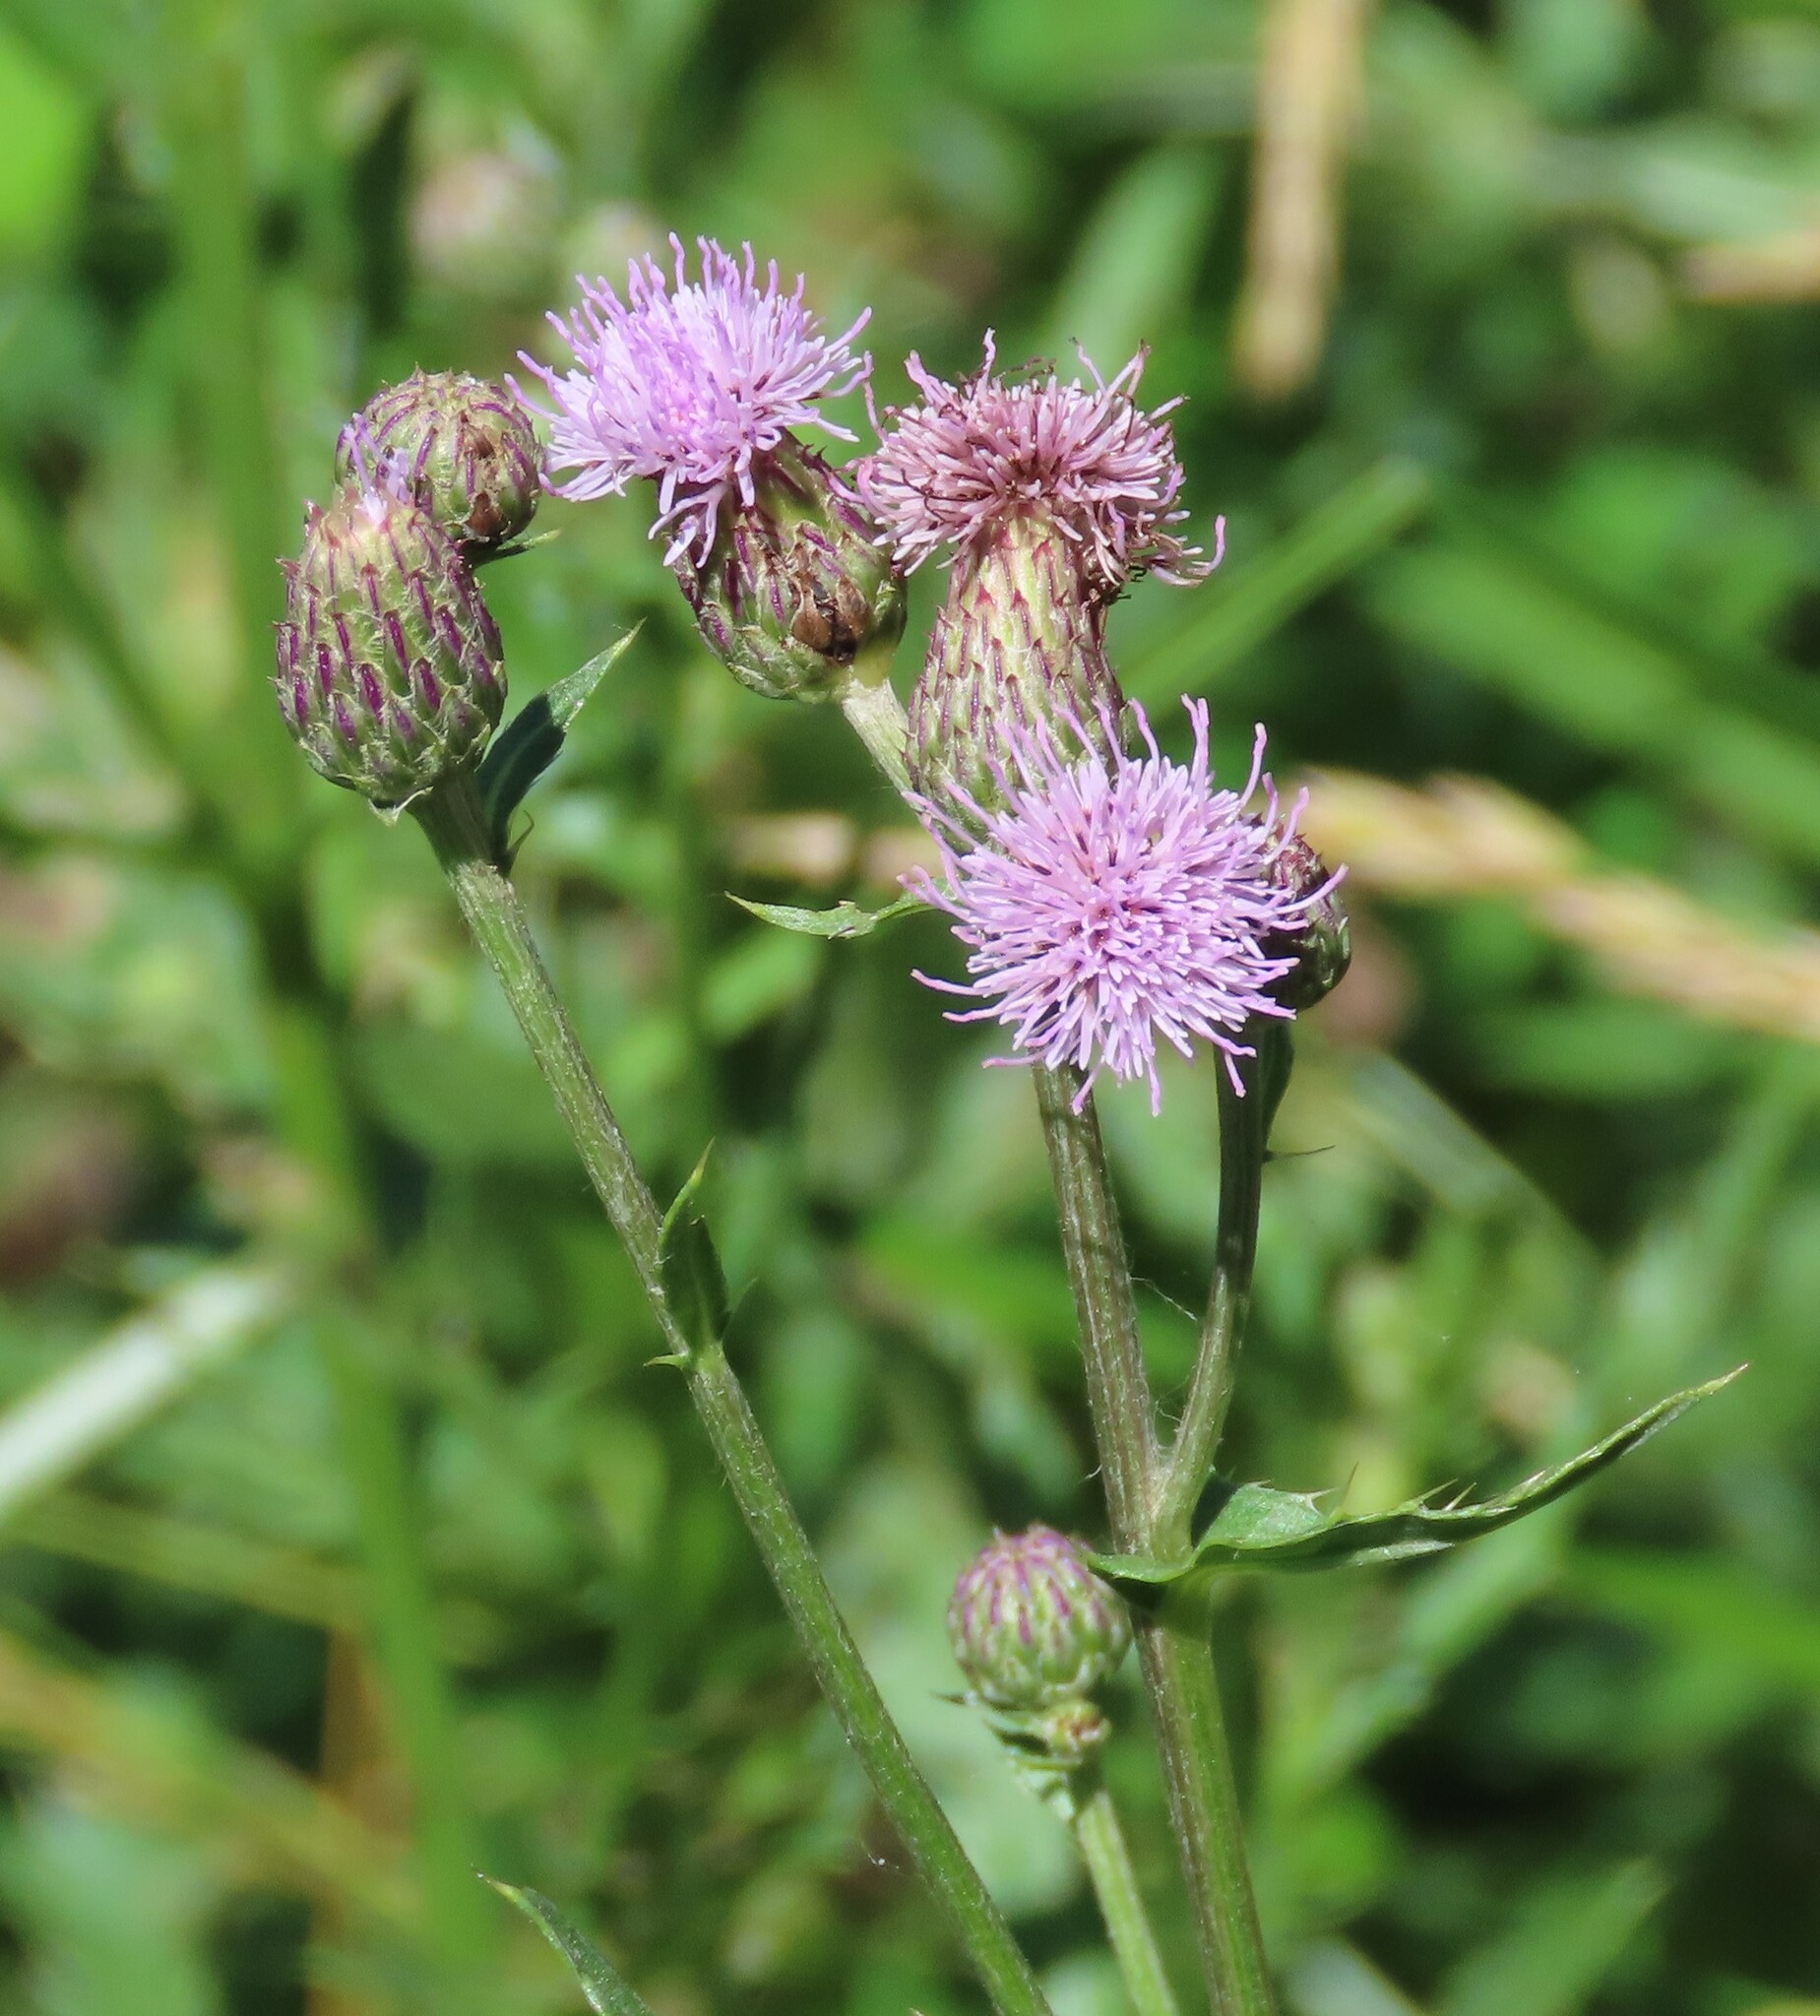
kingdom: Plantae
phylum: Tracheophyta
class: Magnoliopsida
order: Asterales
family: Asteraceae
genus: Cirsium
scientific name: Cirsium arvense
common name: Creeping thistle
